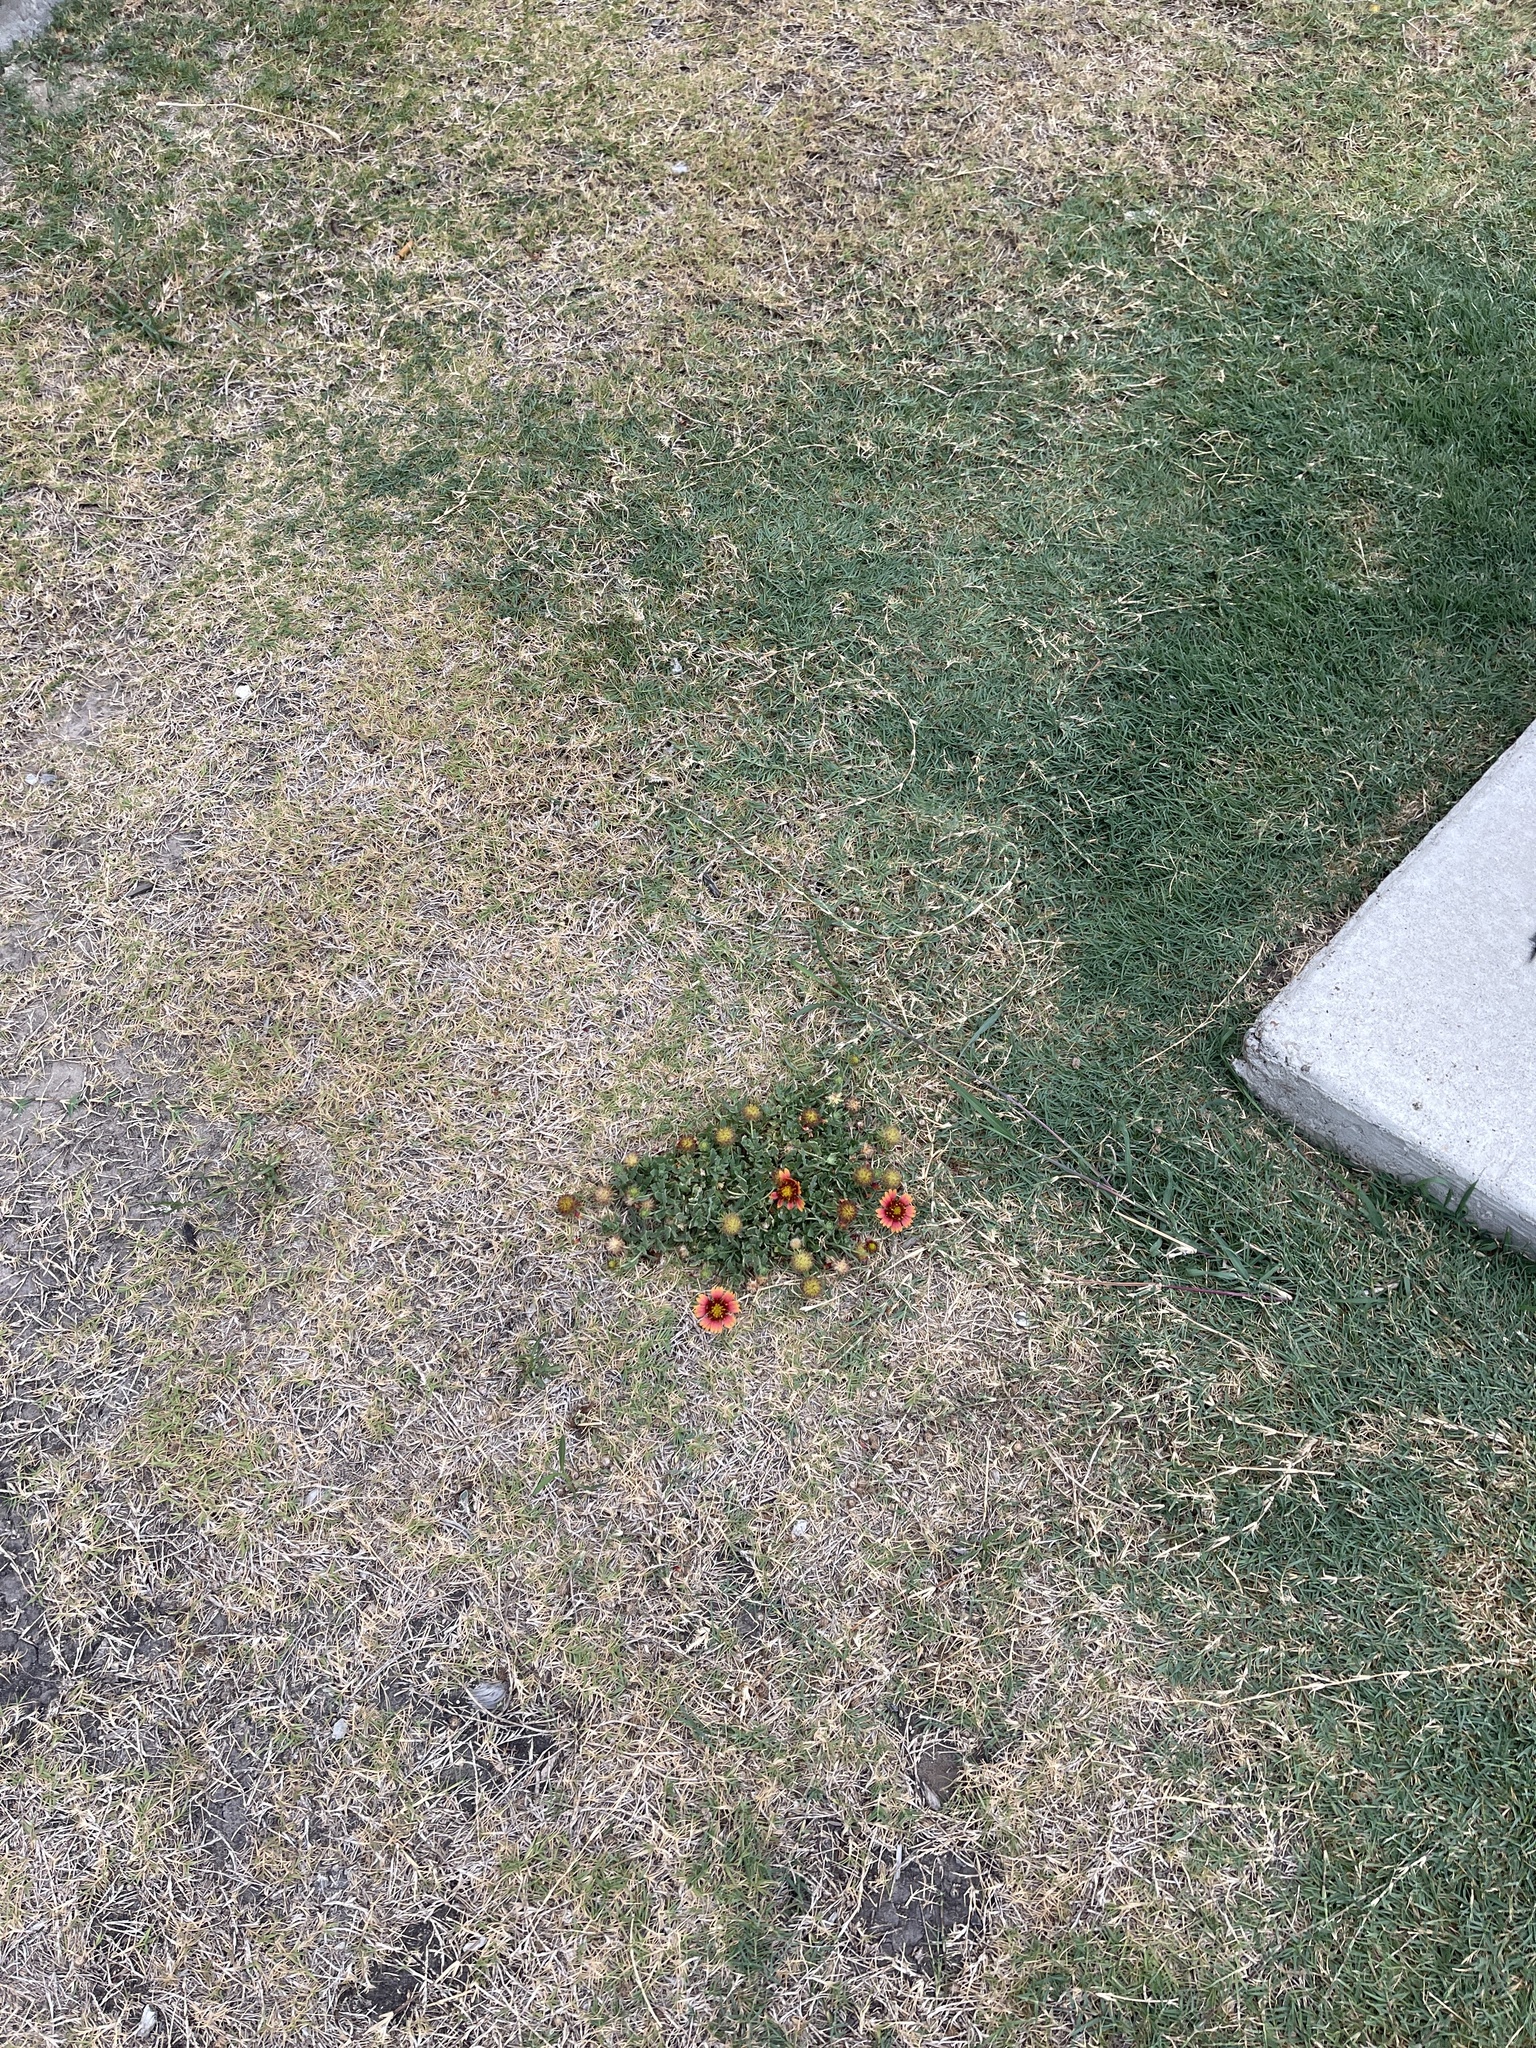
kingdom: Plantae
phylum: Tracheophyta
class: Magnoliopsida
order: Asterales
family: Asteraceae
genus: Gaillardia
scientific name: Gaillardia pulchella
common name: Firewheel
